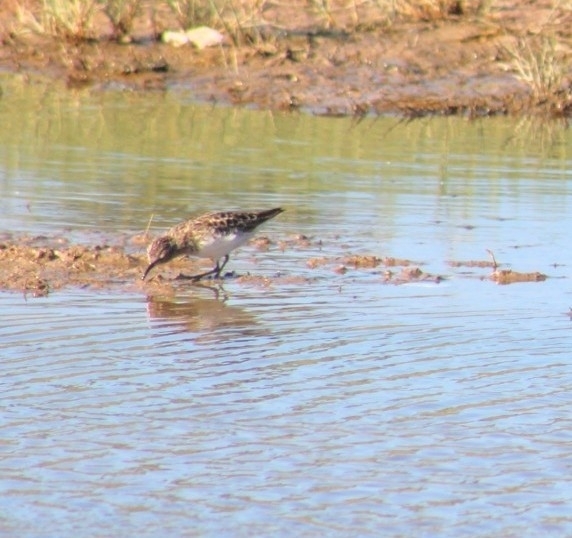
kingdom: Animalia
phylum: Chordata
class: Aves
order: Charadriiformes
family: Scolopacidae
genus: Calidris
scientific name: Calidris minutilla
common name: Least sandpiper
